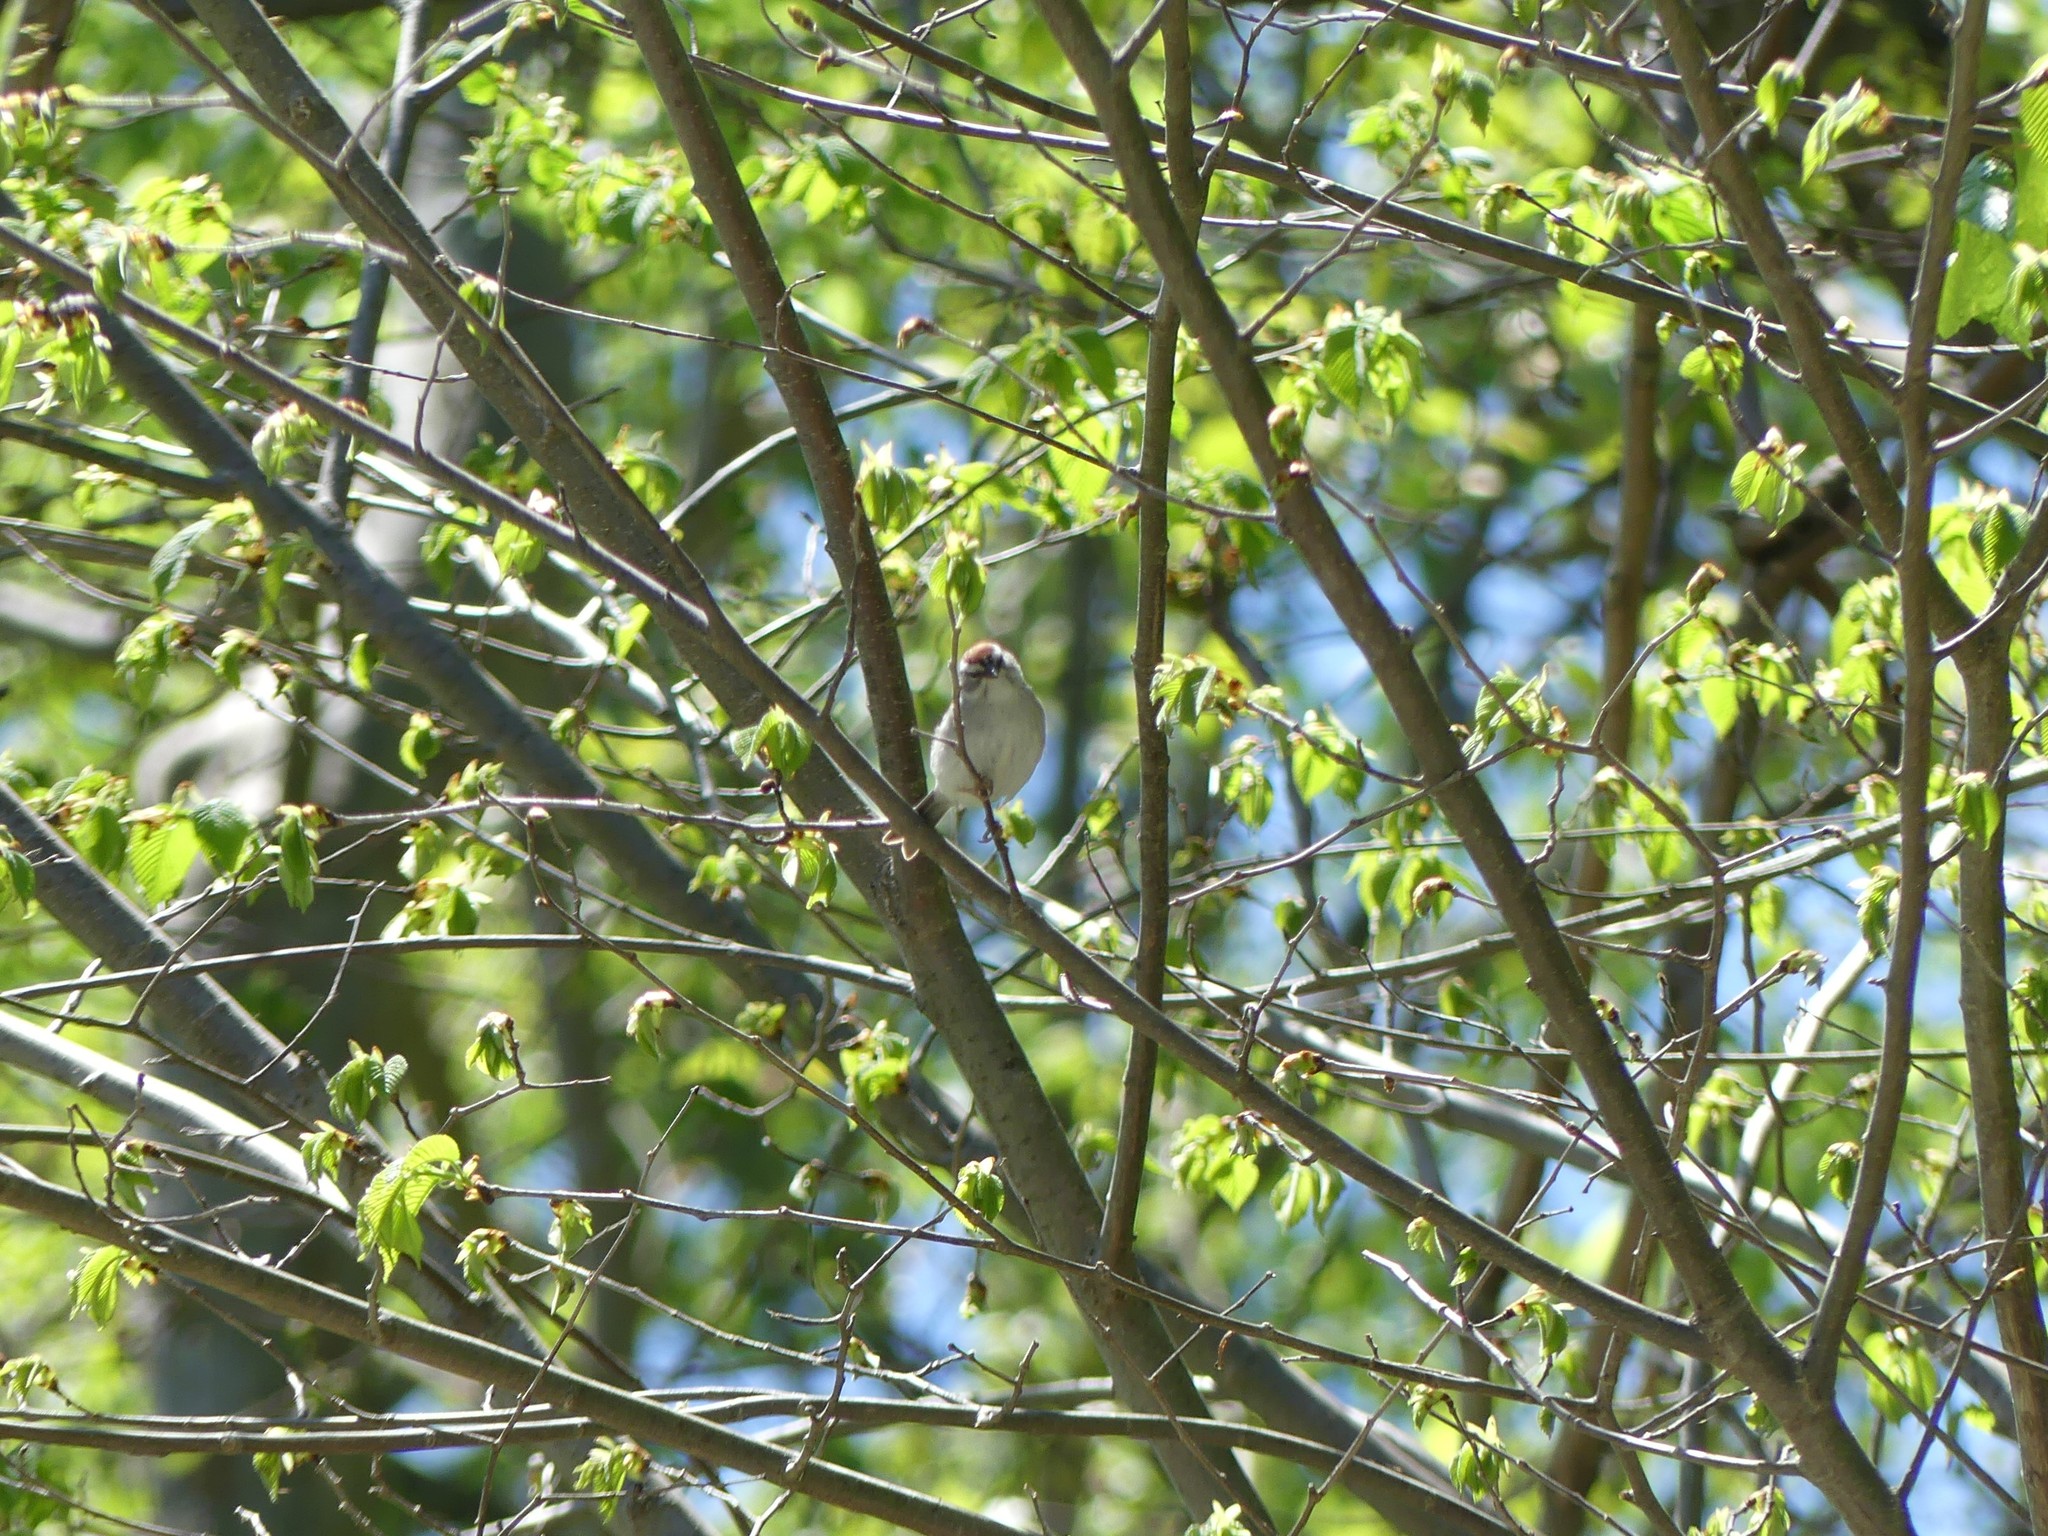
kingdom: Animalia
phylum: Chordata
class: Aves
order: Passeriformes
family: Passerellidae
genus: Spizella
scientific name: Spizella passerina
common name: Chipping sparrow
